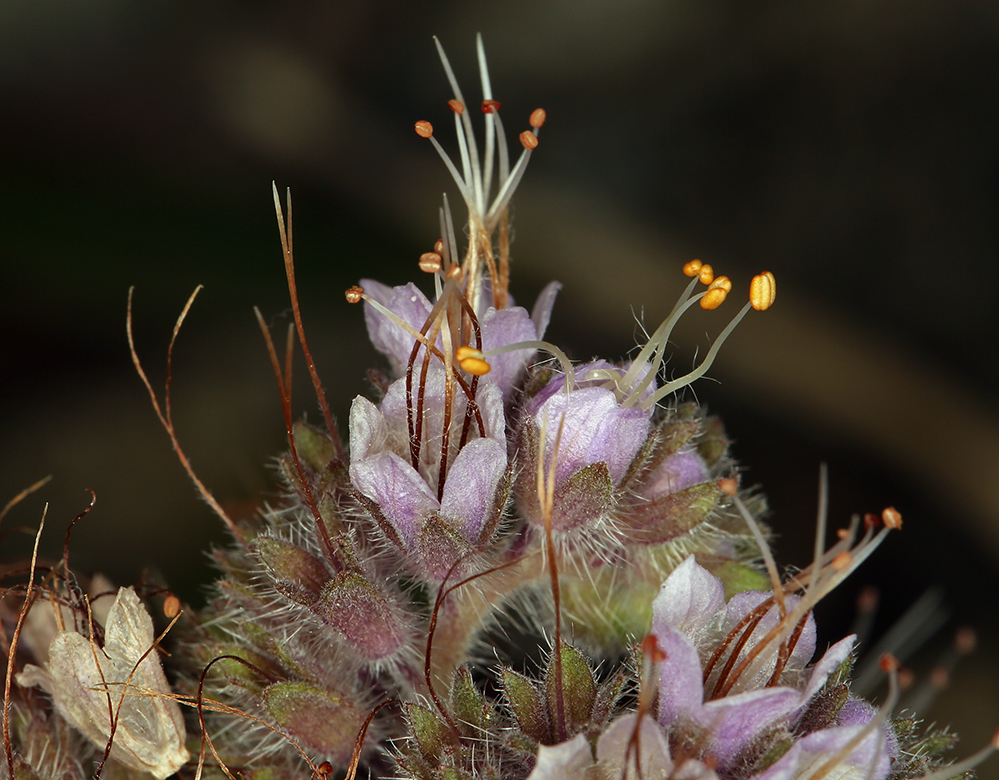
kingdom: Plantae
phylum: Tracheophyta
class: Magnoliopsida
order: Boraginales
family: Hydrophyllaceae
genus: Phacelia
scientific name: Phacelia californica
